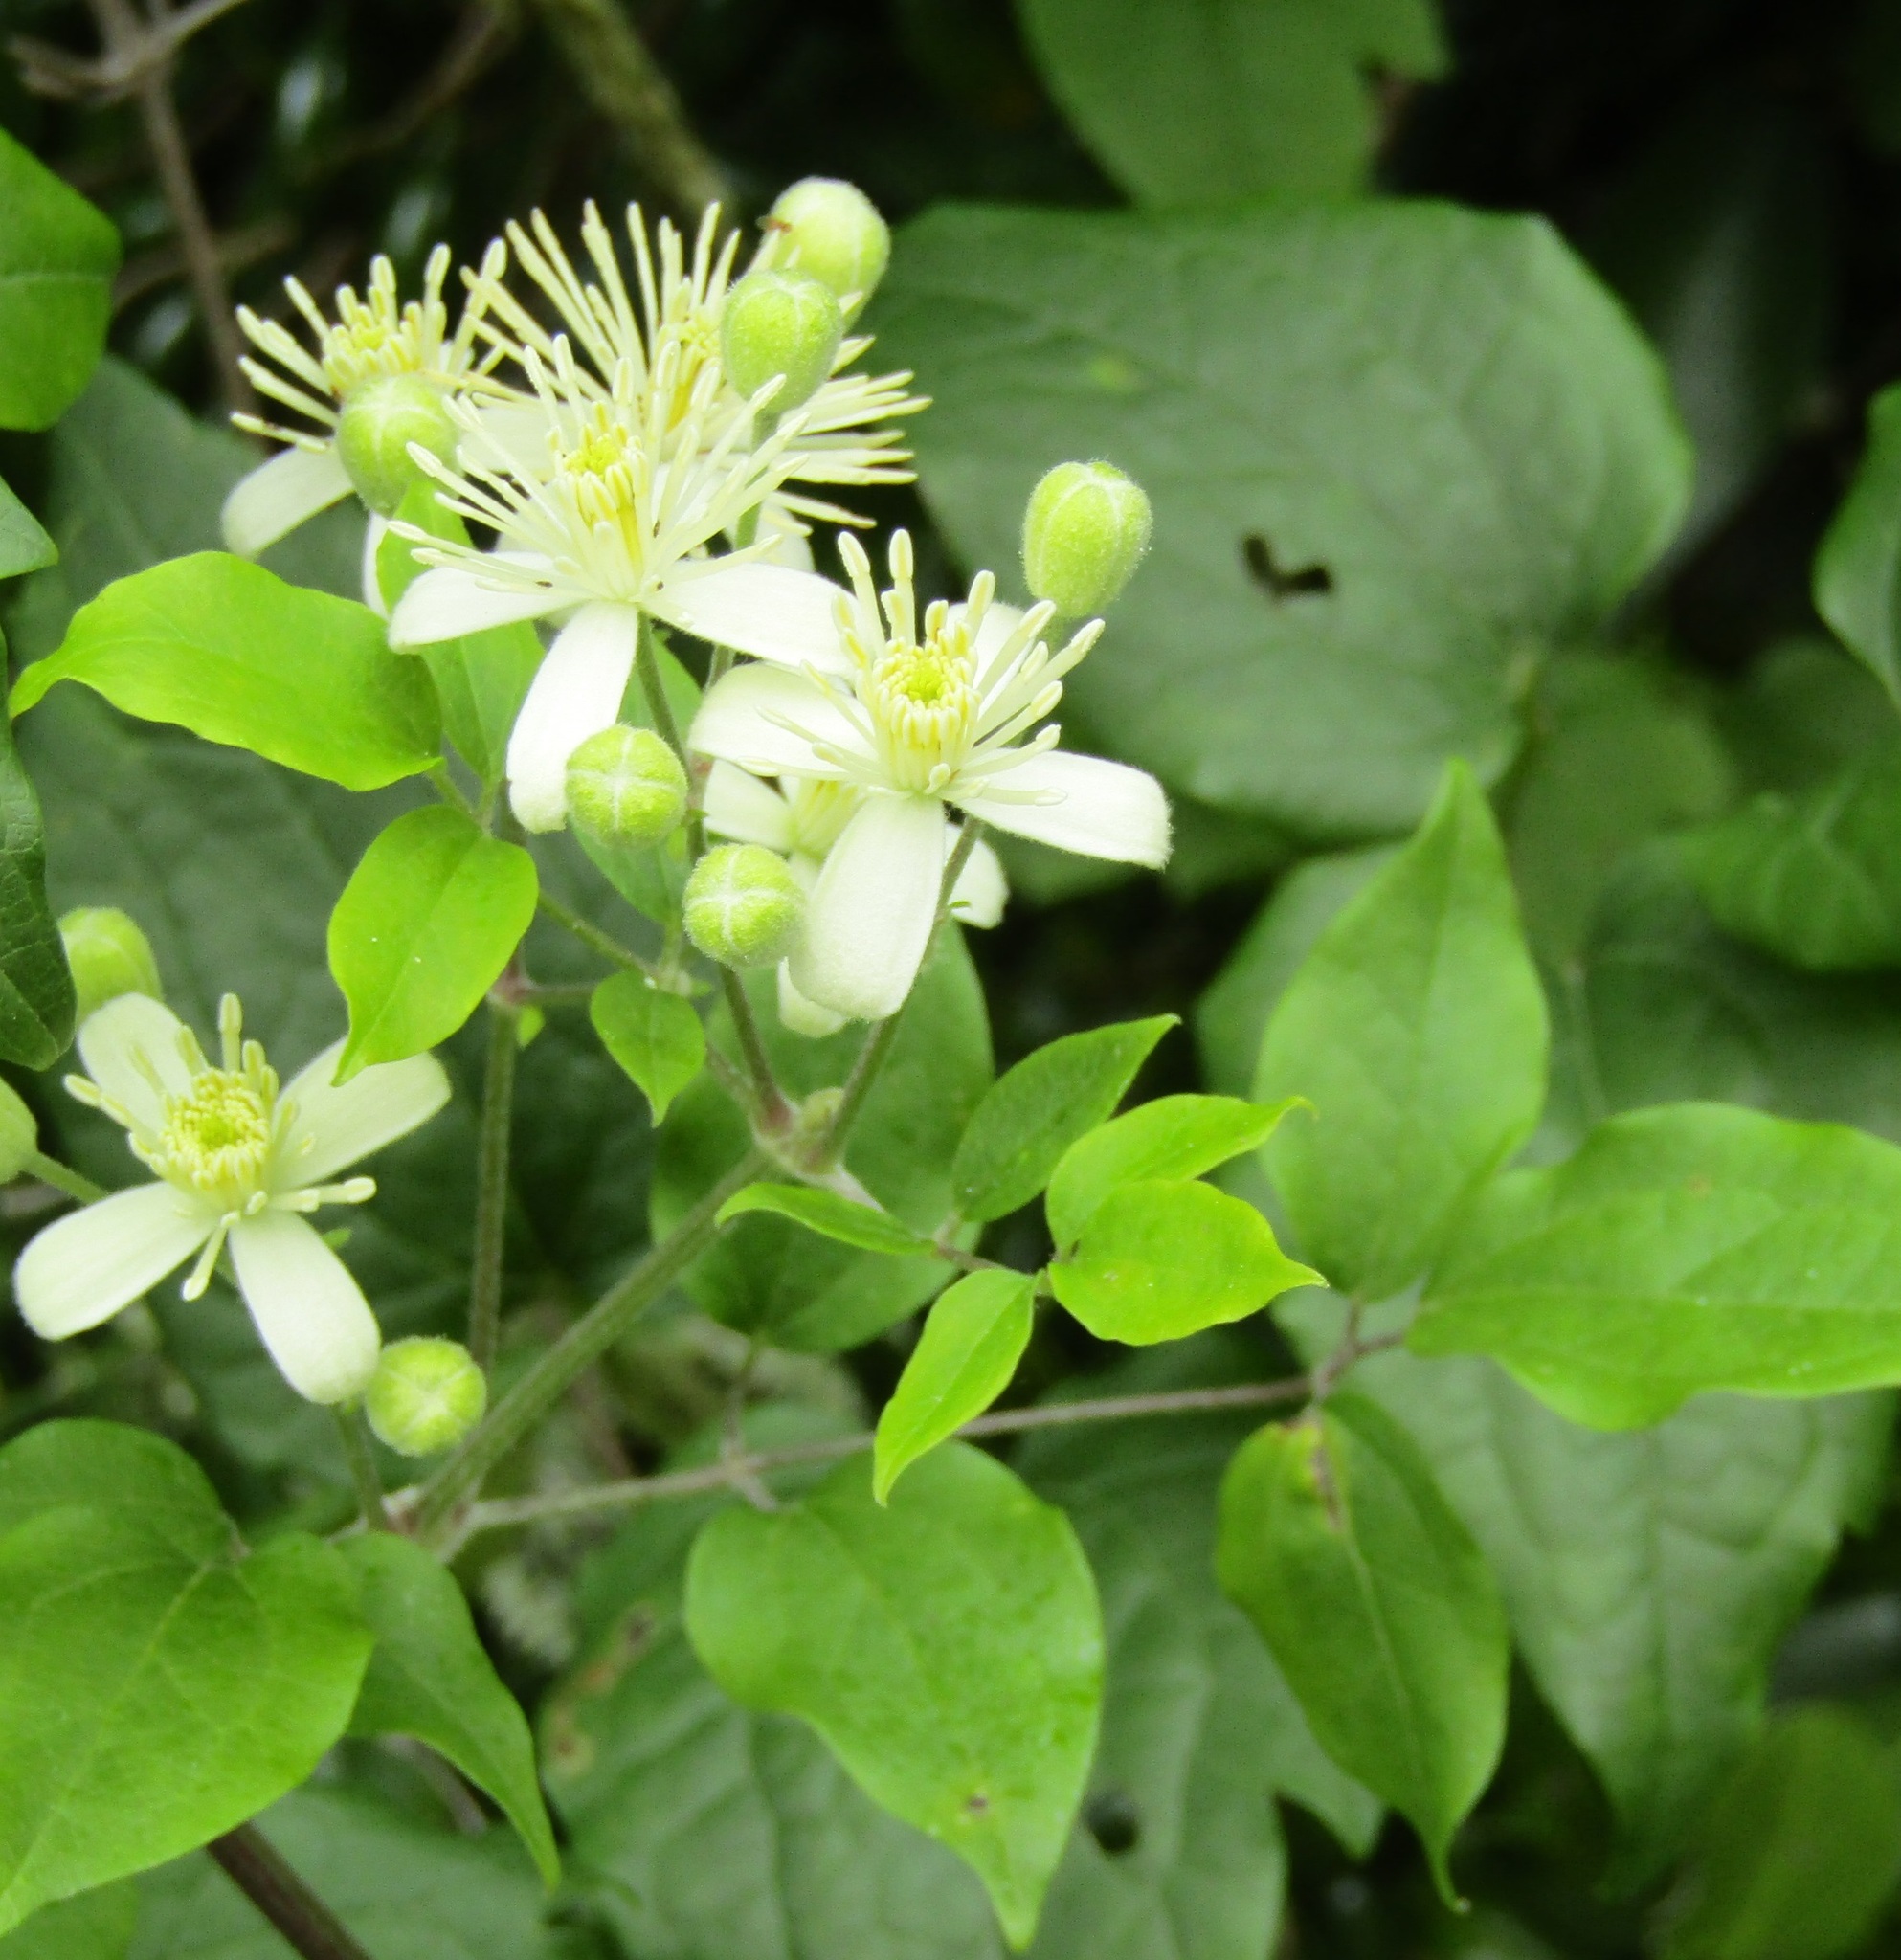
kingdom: Plantae
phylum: Tracheophyta
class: Magnoliopsida
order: Ranunculales
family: Ranunculaceae
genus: Clematis
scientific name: Clematis vitalba
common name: Evergreen clematis
